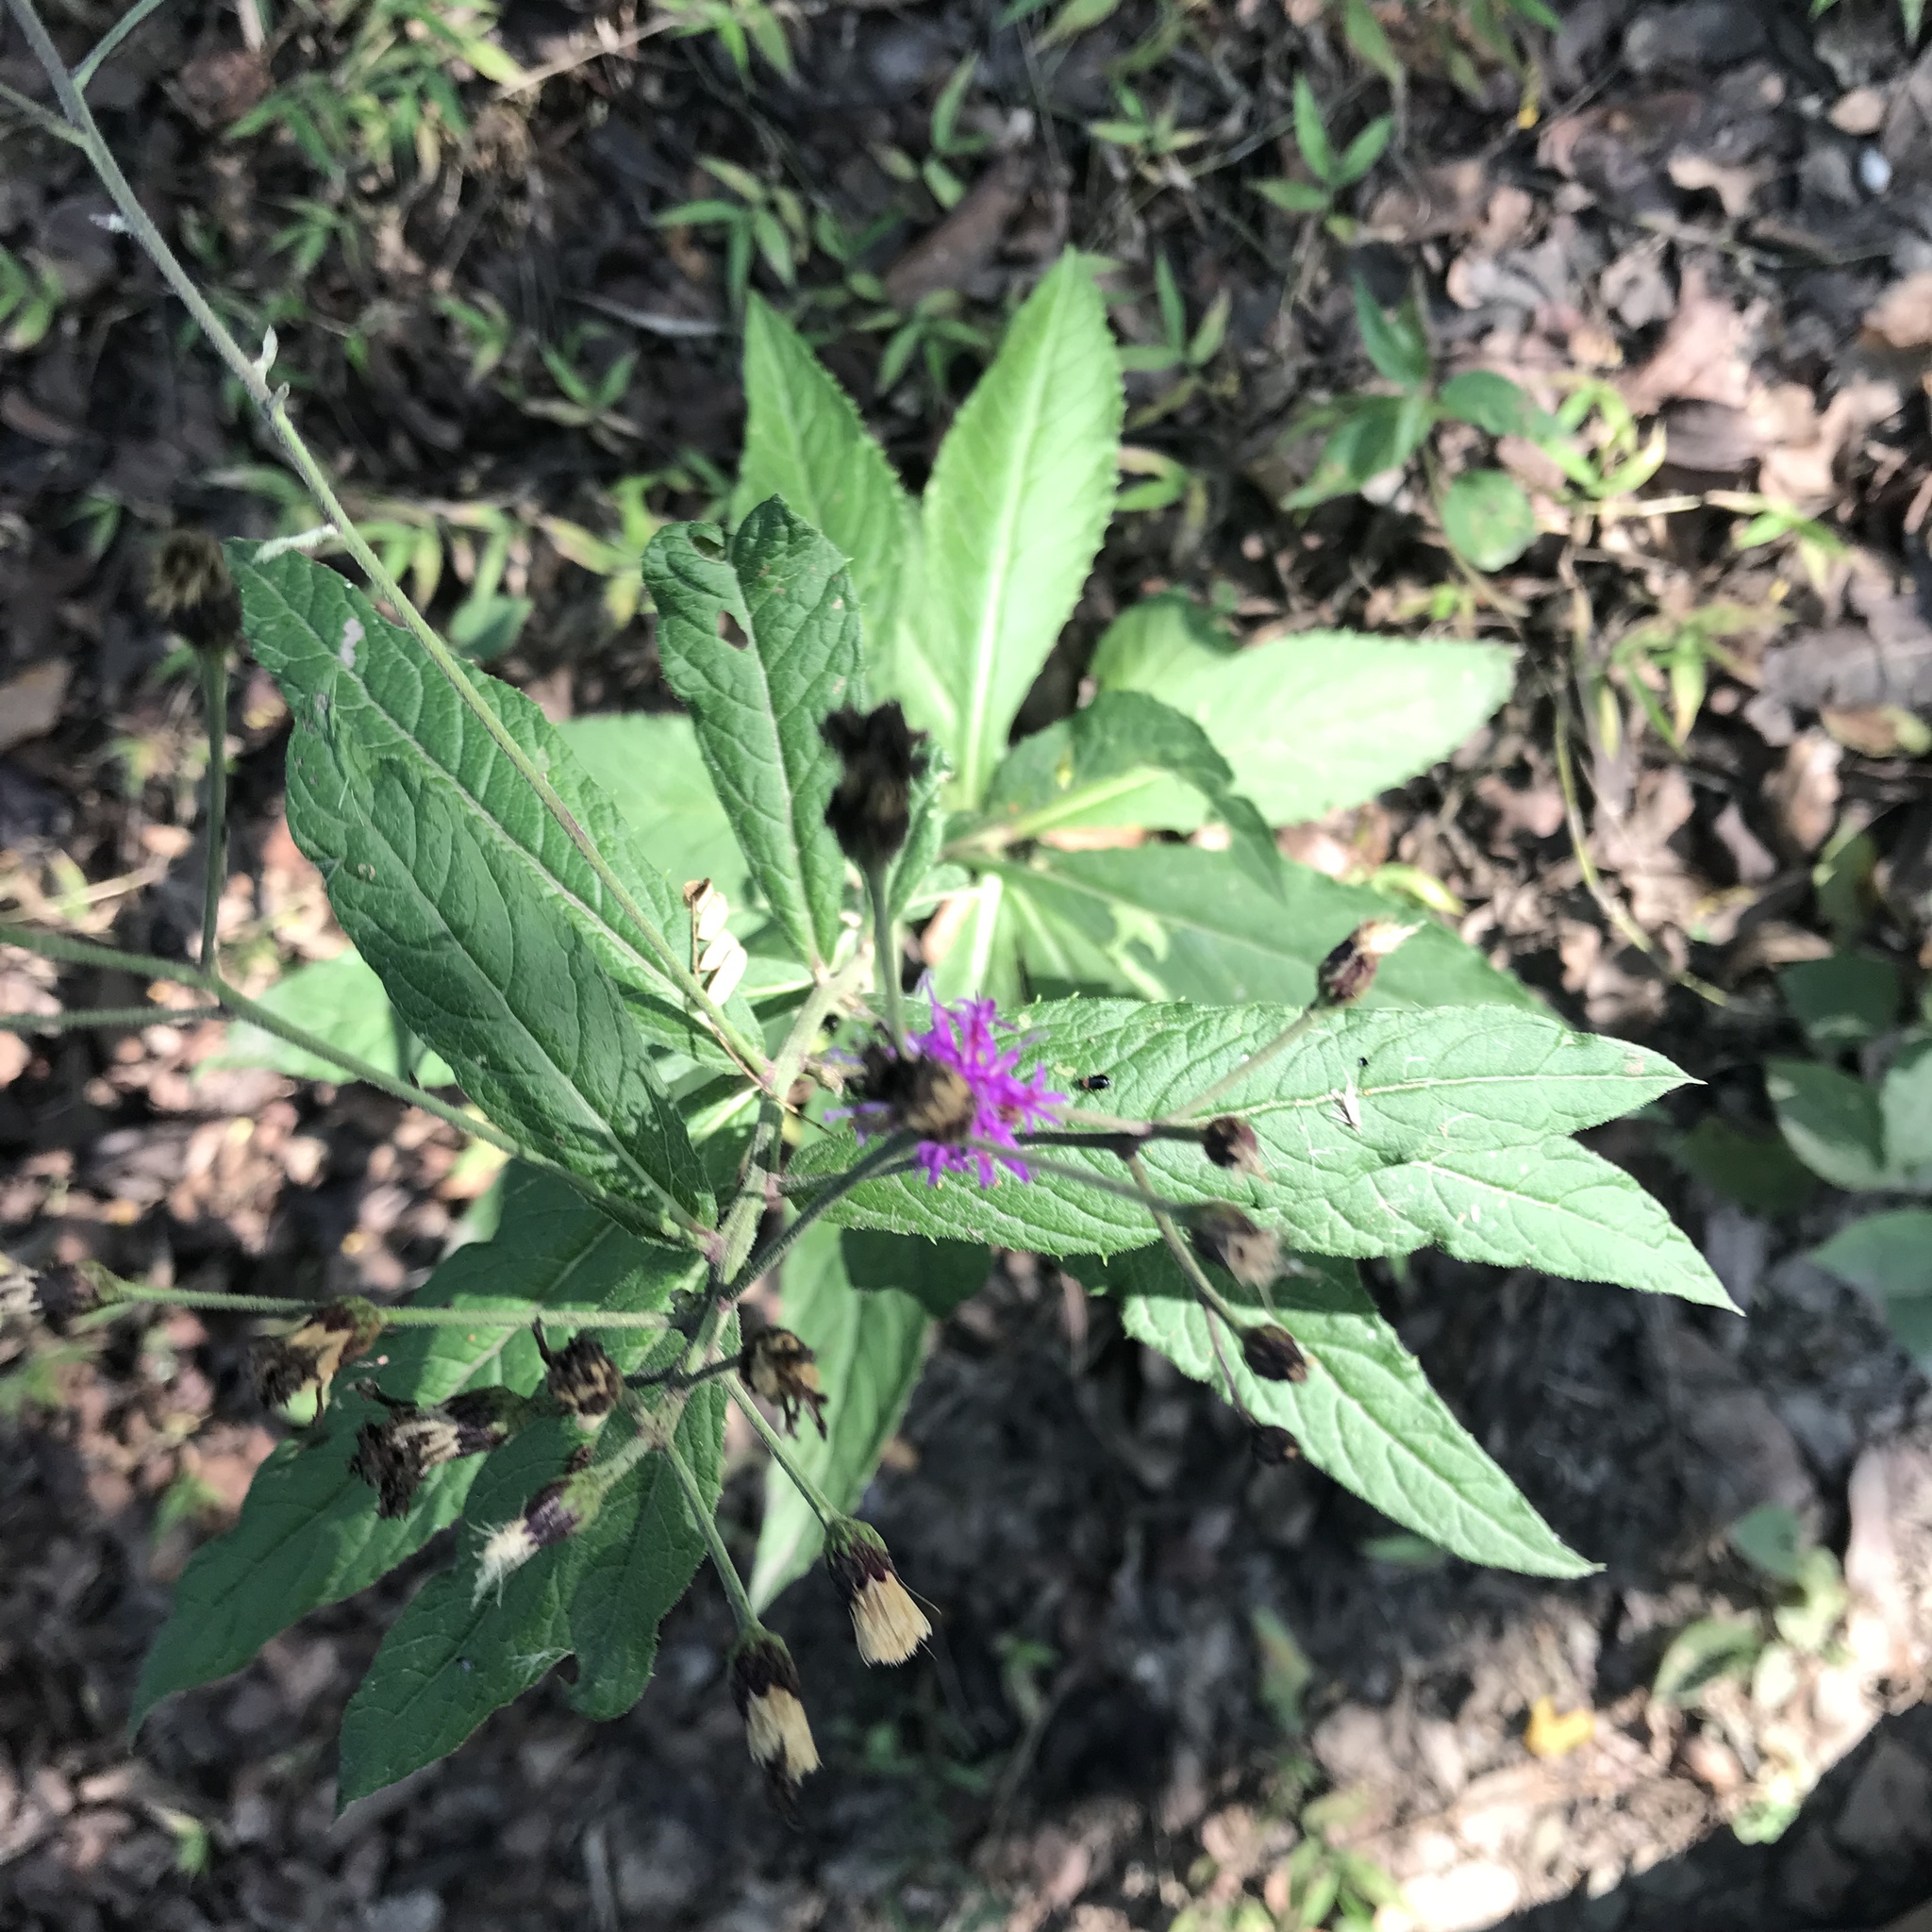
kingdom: Plantae
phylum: Tracheophyta
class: Magnoliopsida
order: Asterales
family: Asteraceae
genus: Vernonia
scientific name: Vernonia greggii
